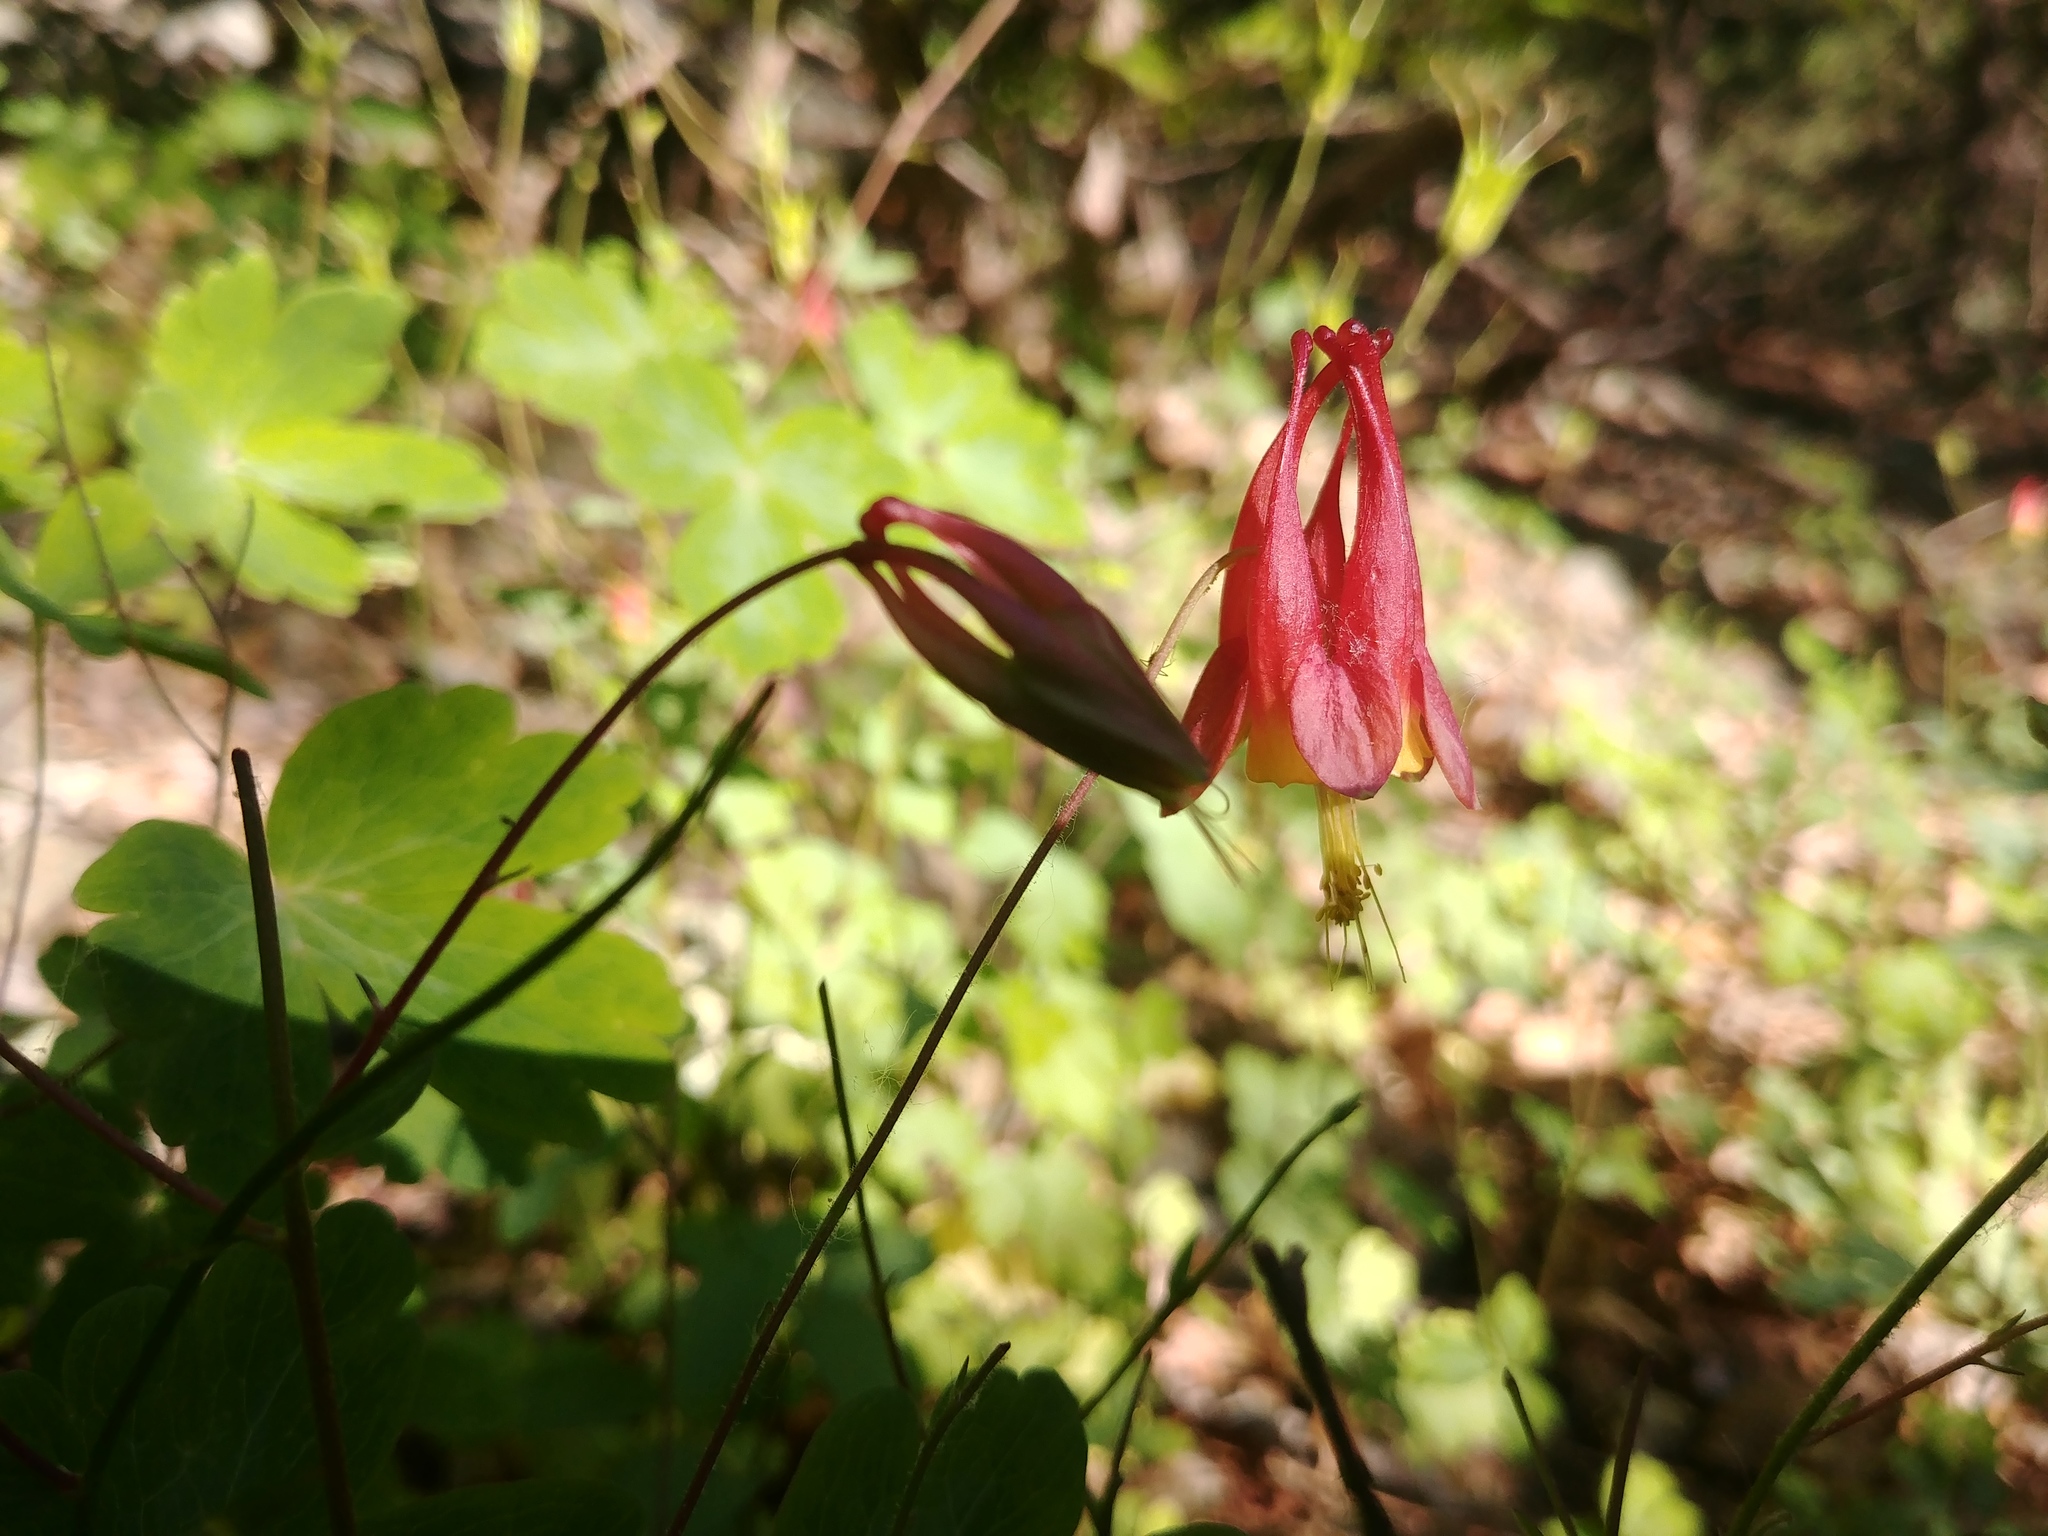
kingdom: Plantae
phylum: Tracheophyta
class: Magnoliopsida
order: Ranunculales
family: Ranunculaceae
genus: Aquilegia
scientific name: Aquilegia canadensis
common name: American columbine
